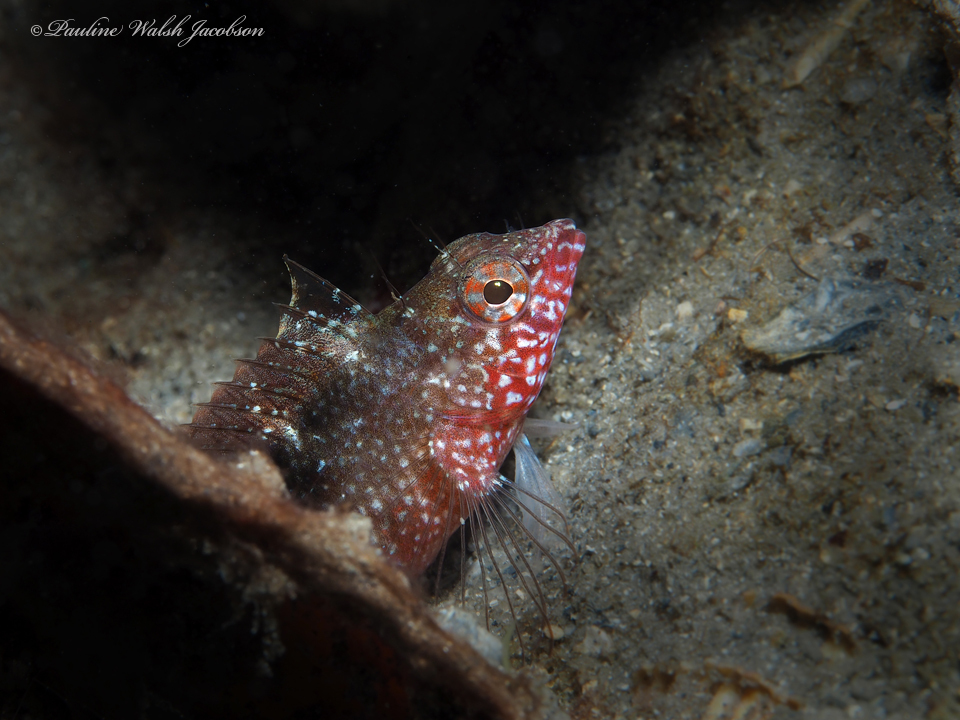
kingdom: Animalia
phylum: Chordata
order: Perciformes
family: Labrisomidae
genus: Malacoctenus
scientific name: Malacoctenus macropus
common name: Rosy blenny
